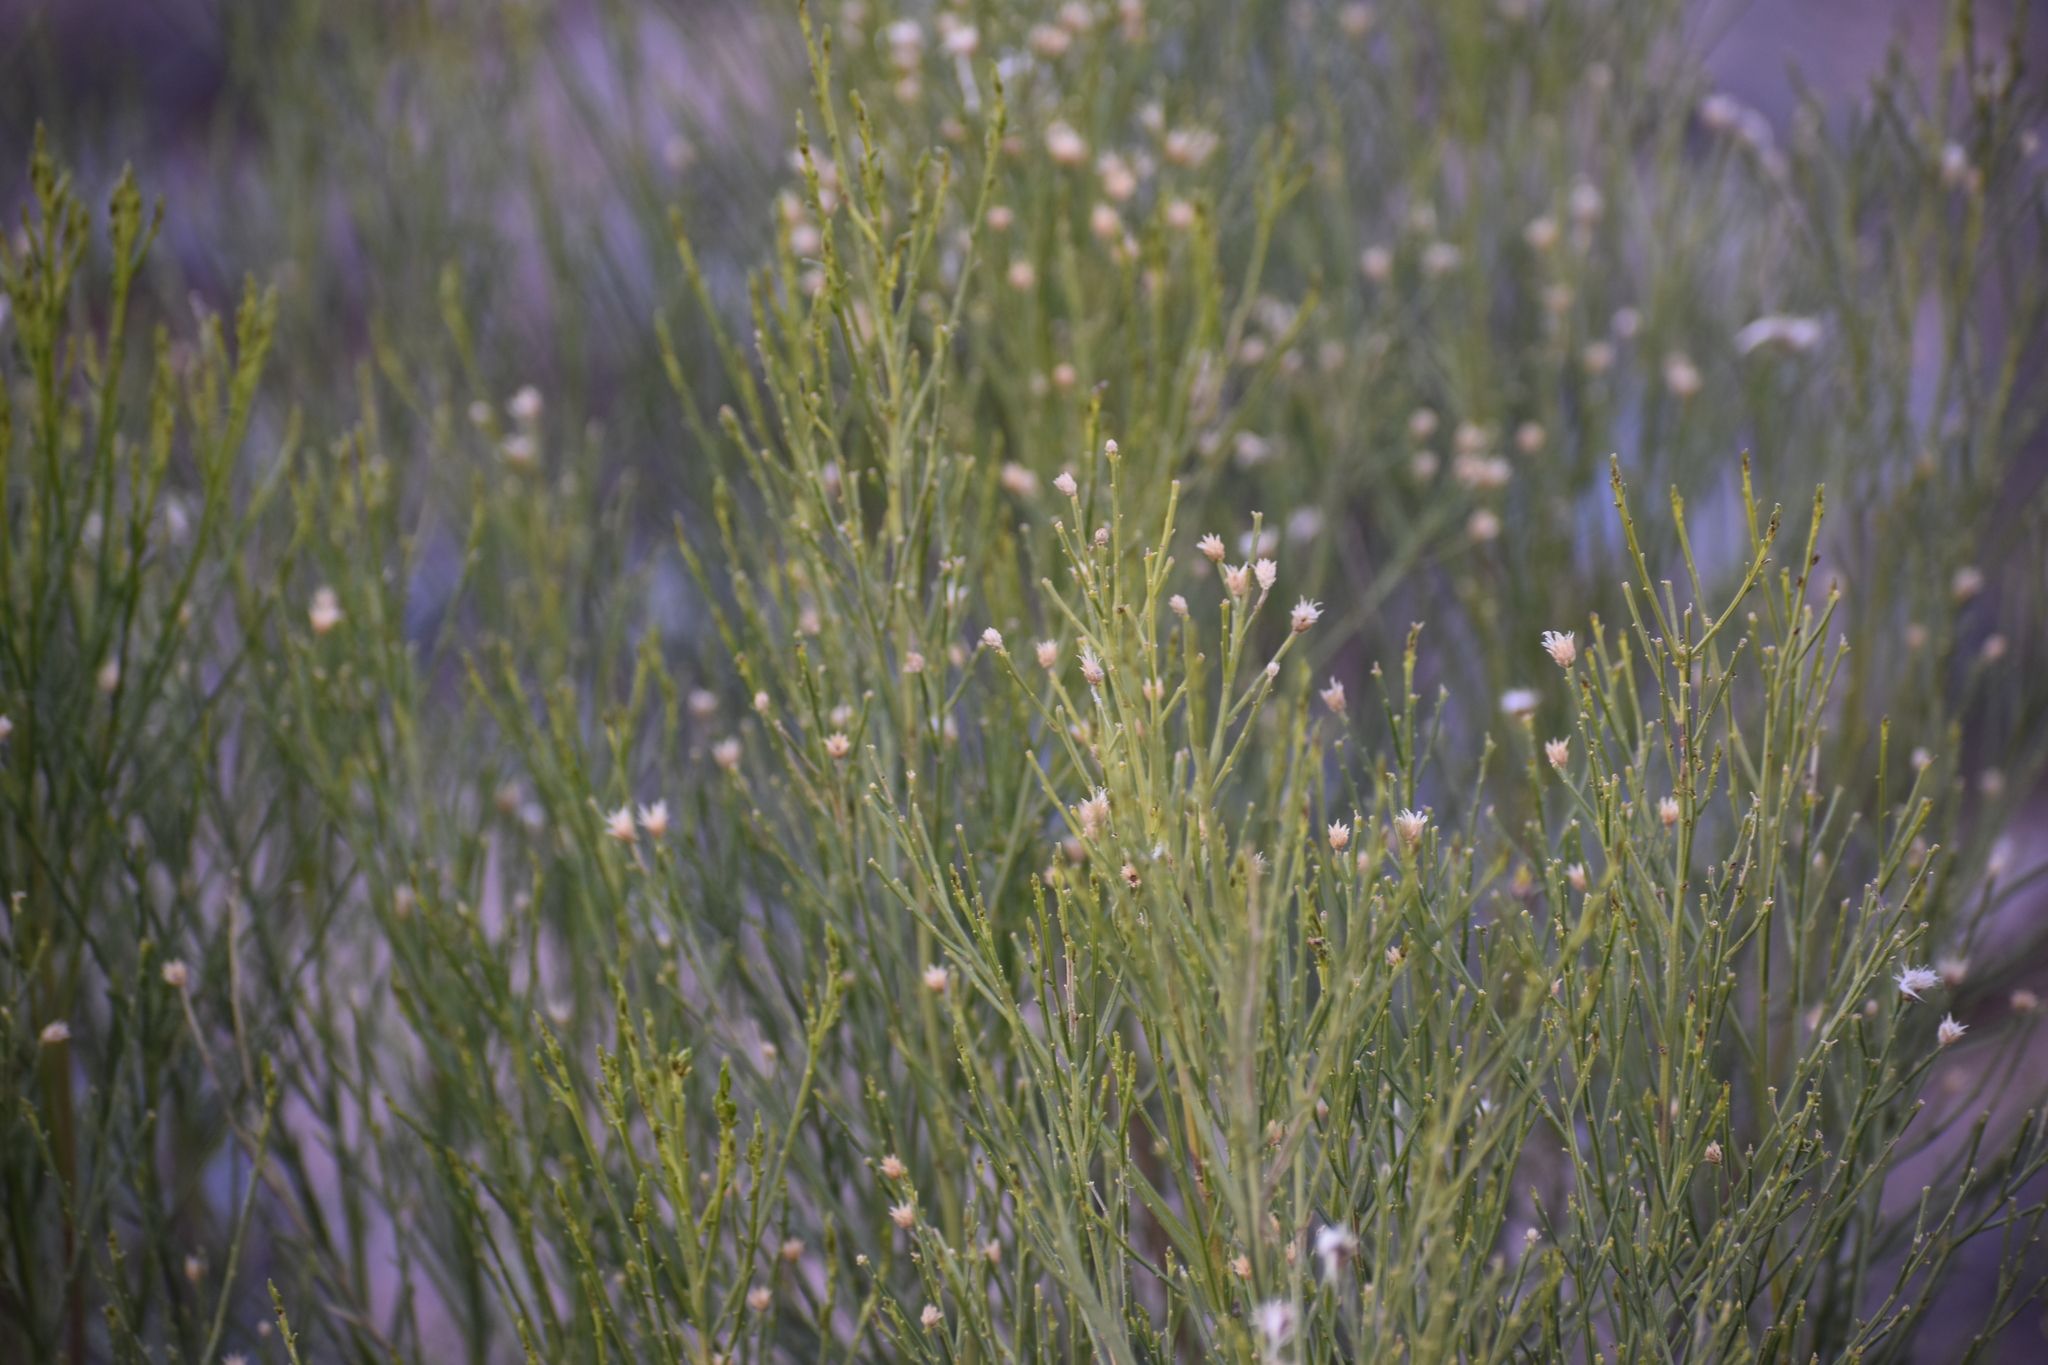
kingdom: Plantae
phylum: Tracheophyta
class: Magnoliopsida
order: Asterales
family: Asteraceae
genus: Baccharis
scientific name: Baccharis sarothroides
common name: Desert-broom
